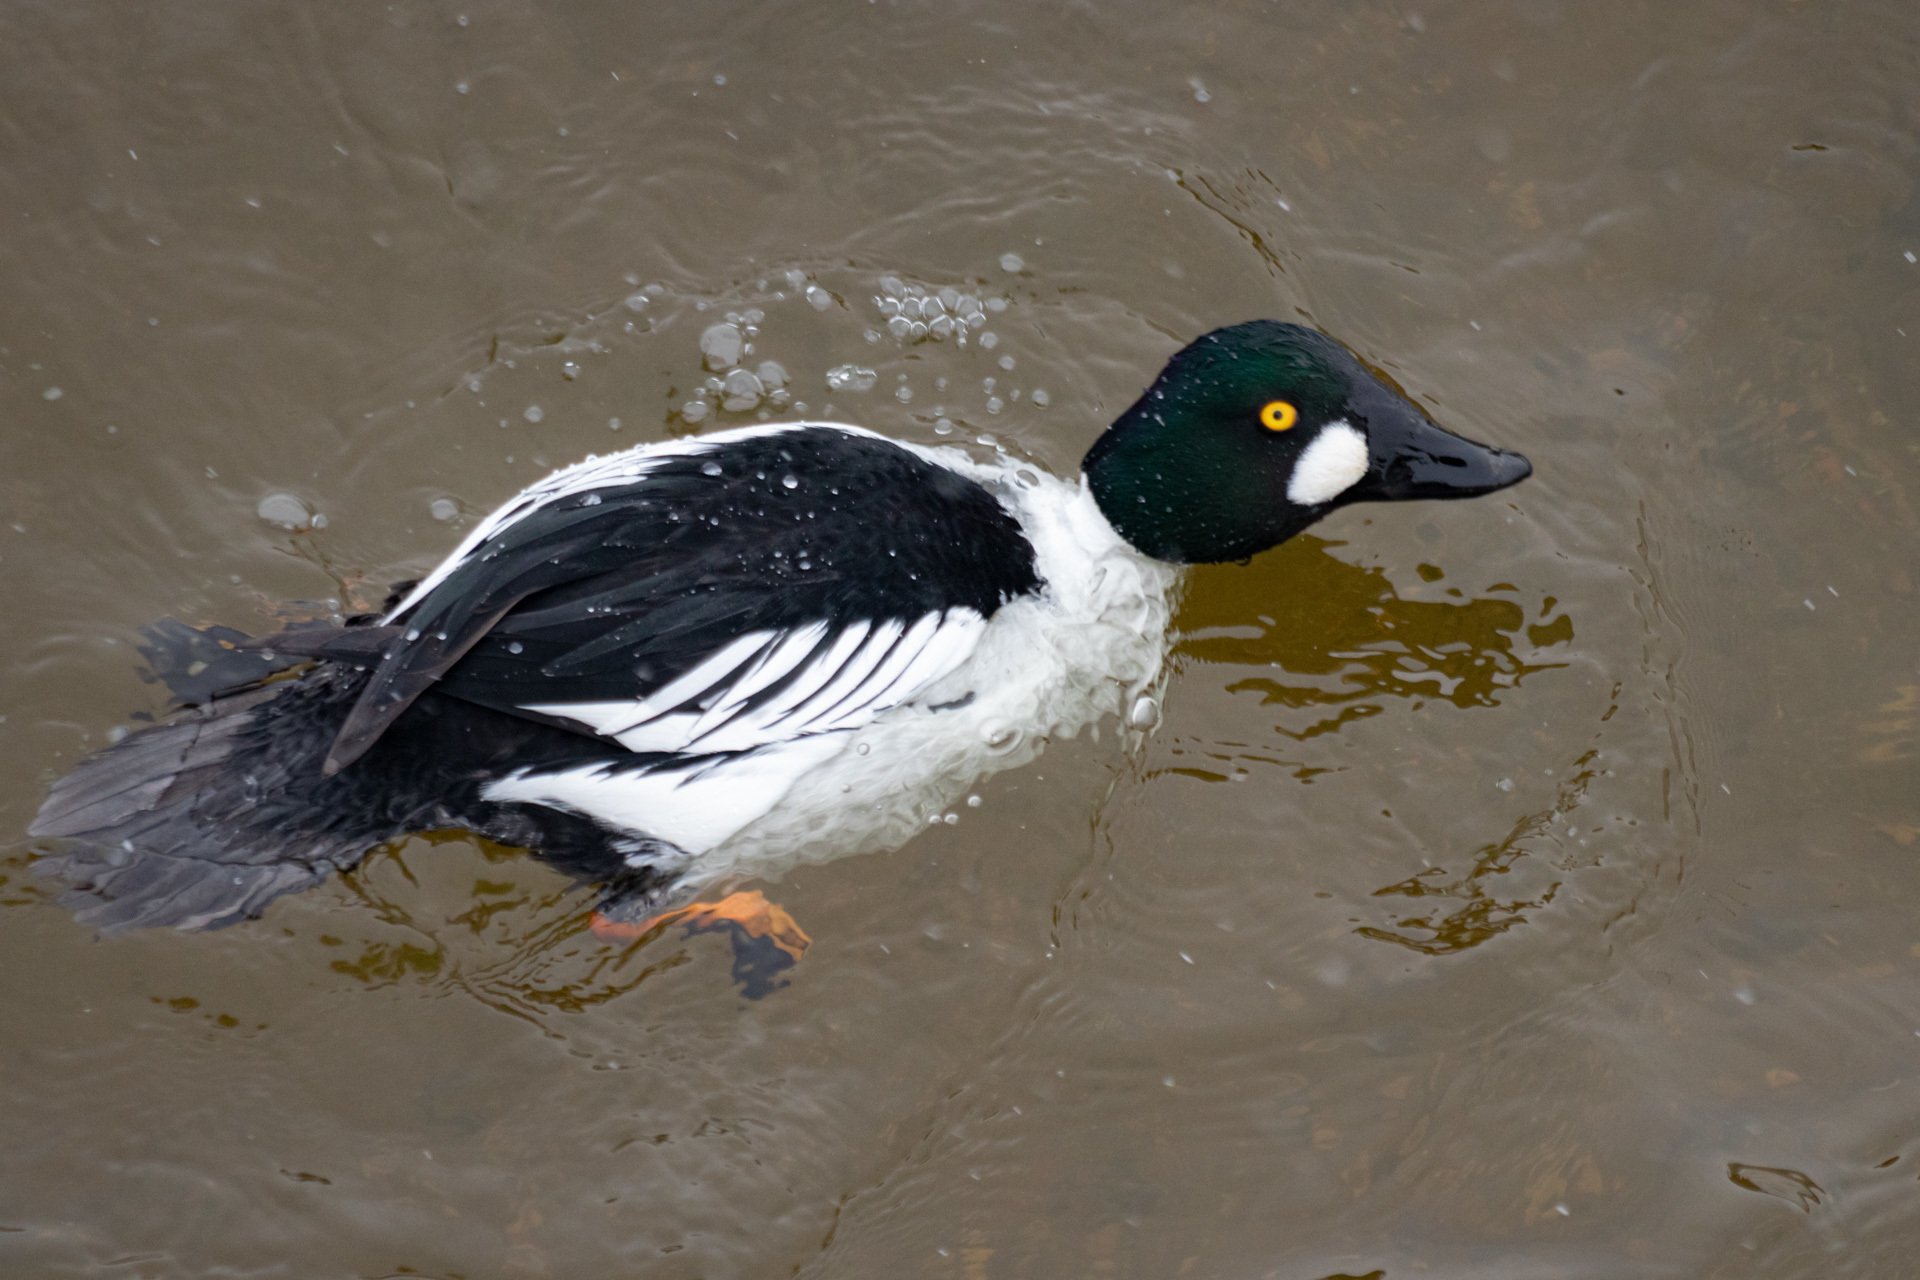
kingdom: Animalia
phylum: Chordata
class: Aves
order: Anseriformes
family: Anatidae
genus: Bucephala
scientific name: Bucephala clangula
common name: Common goldeneye
